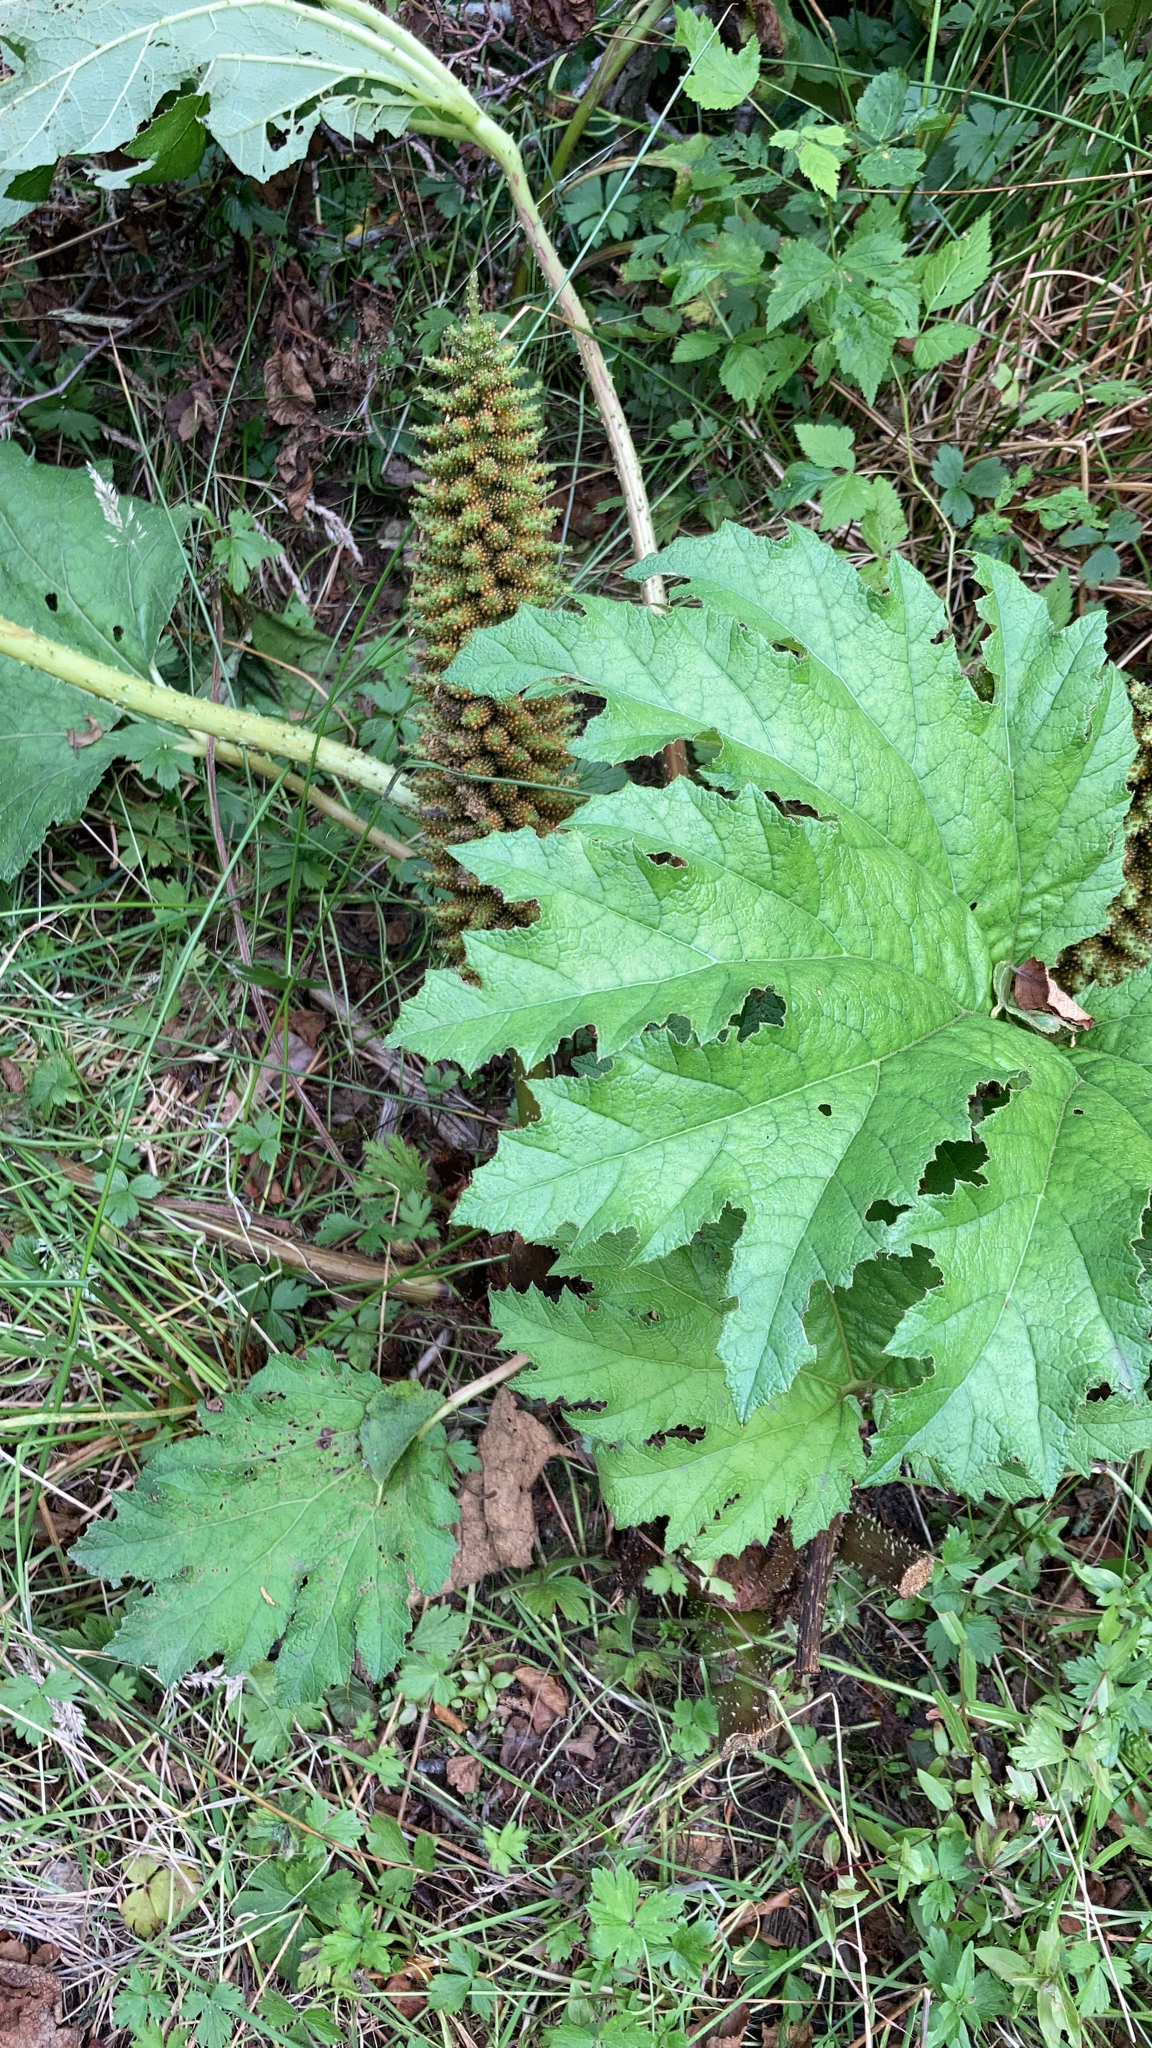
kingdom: Plantae
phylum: Tracheophyta
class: Magnoliopsida
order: Gunnerales
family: Gunneraceae
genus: Gunnera
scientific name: Gunnera tinctoria
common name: Giant-rhubarb
